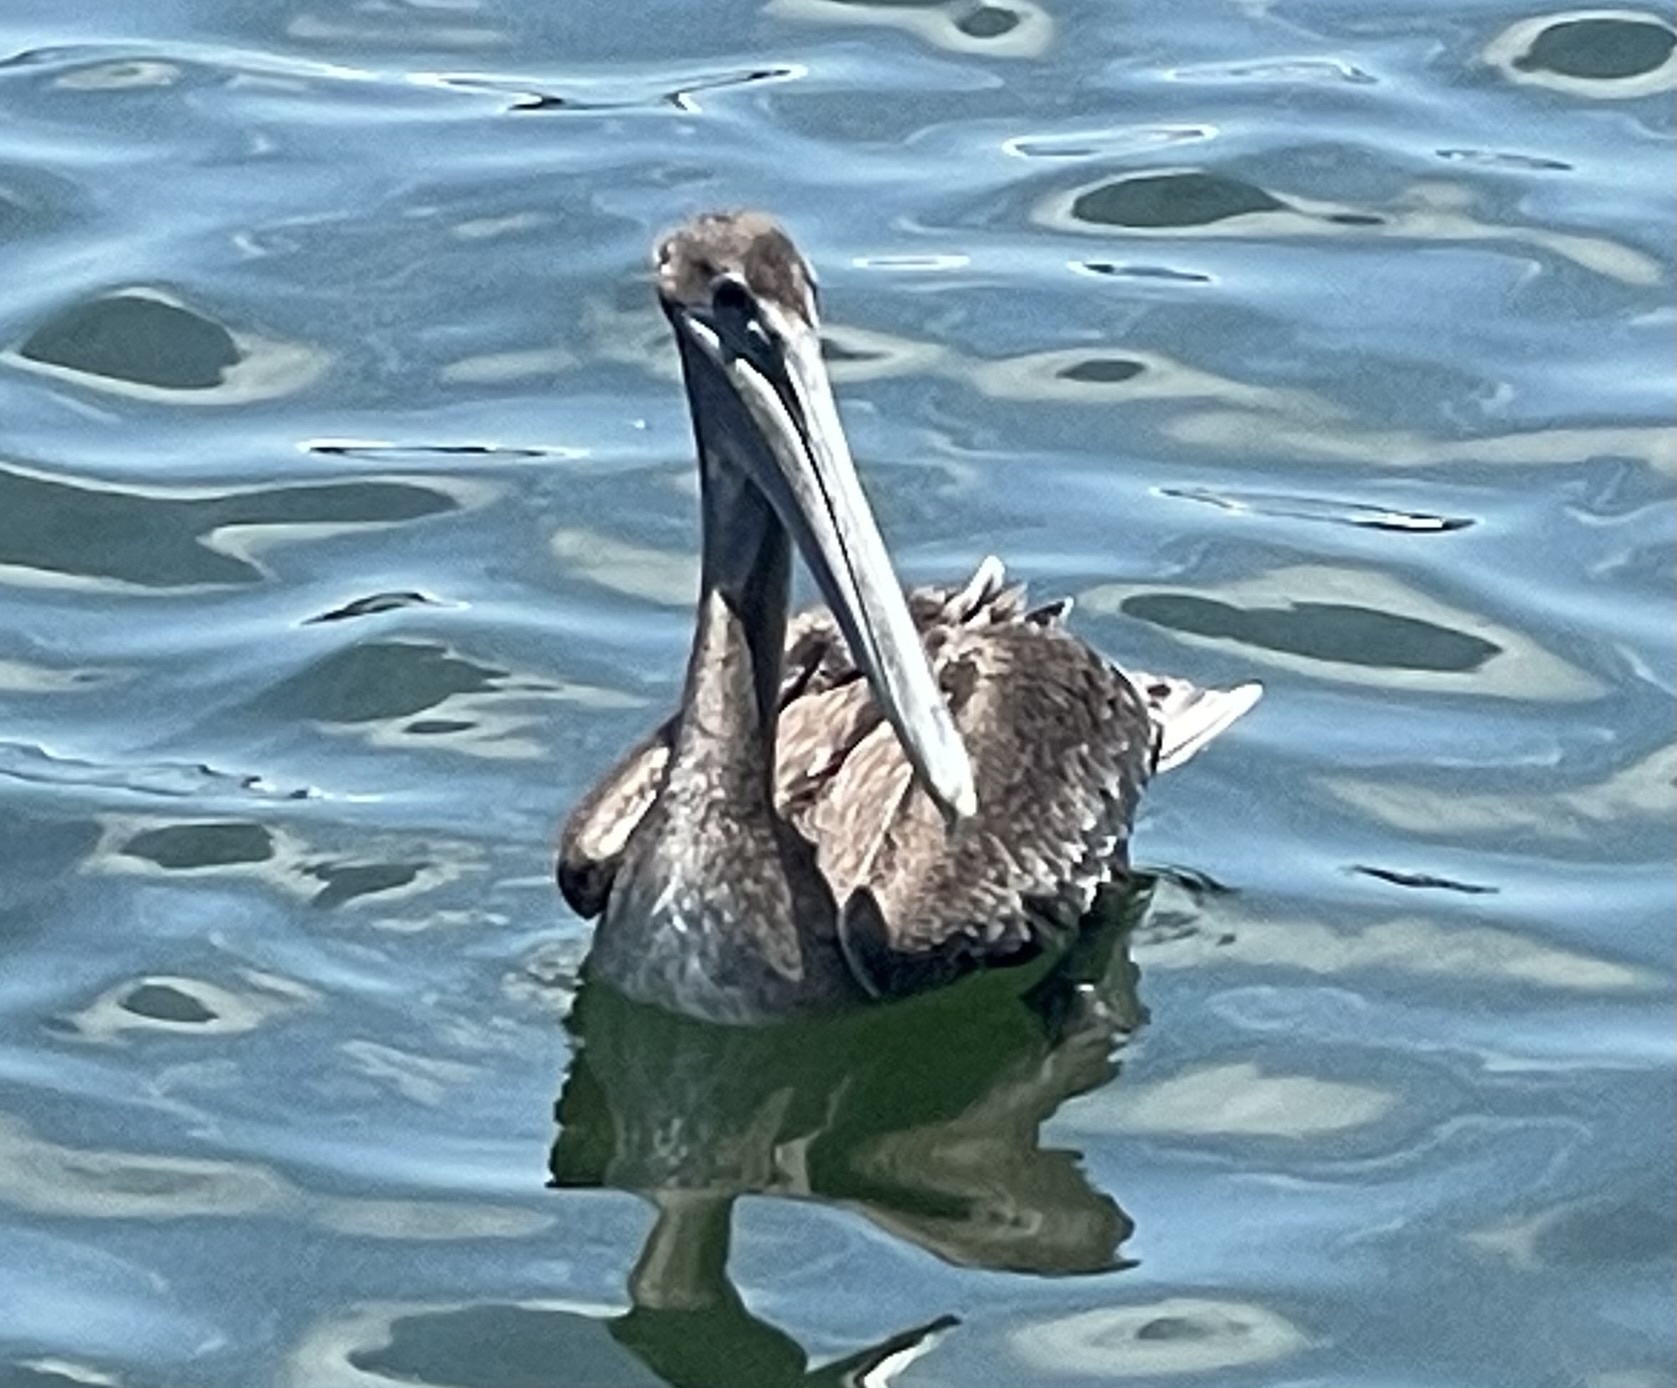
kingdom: Animalia
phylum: Chordata
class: Aves
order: Pelecaniformes
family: Pelecanidae
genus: Pelecanus
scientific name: Pelecanus occidentalis
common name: Brown pelican
